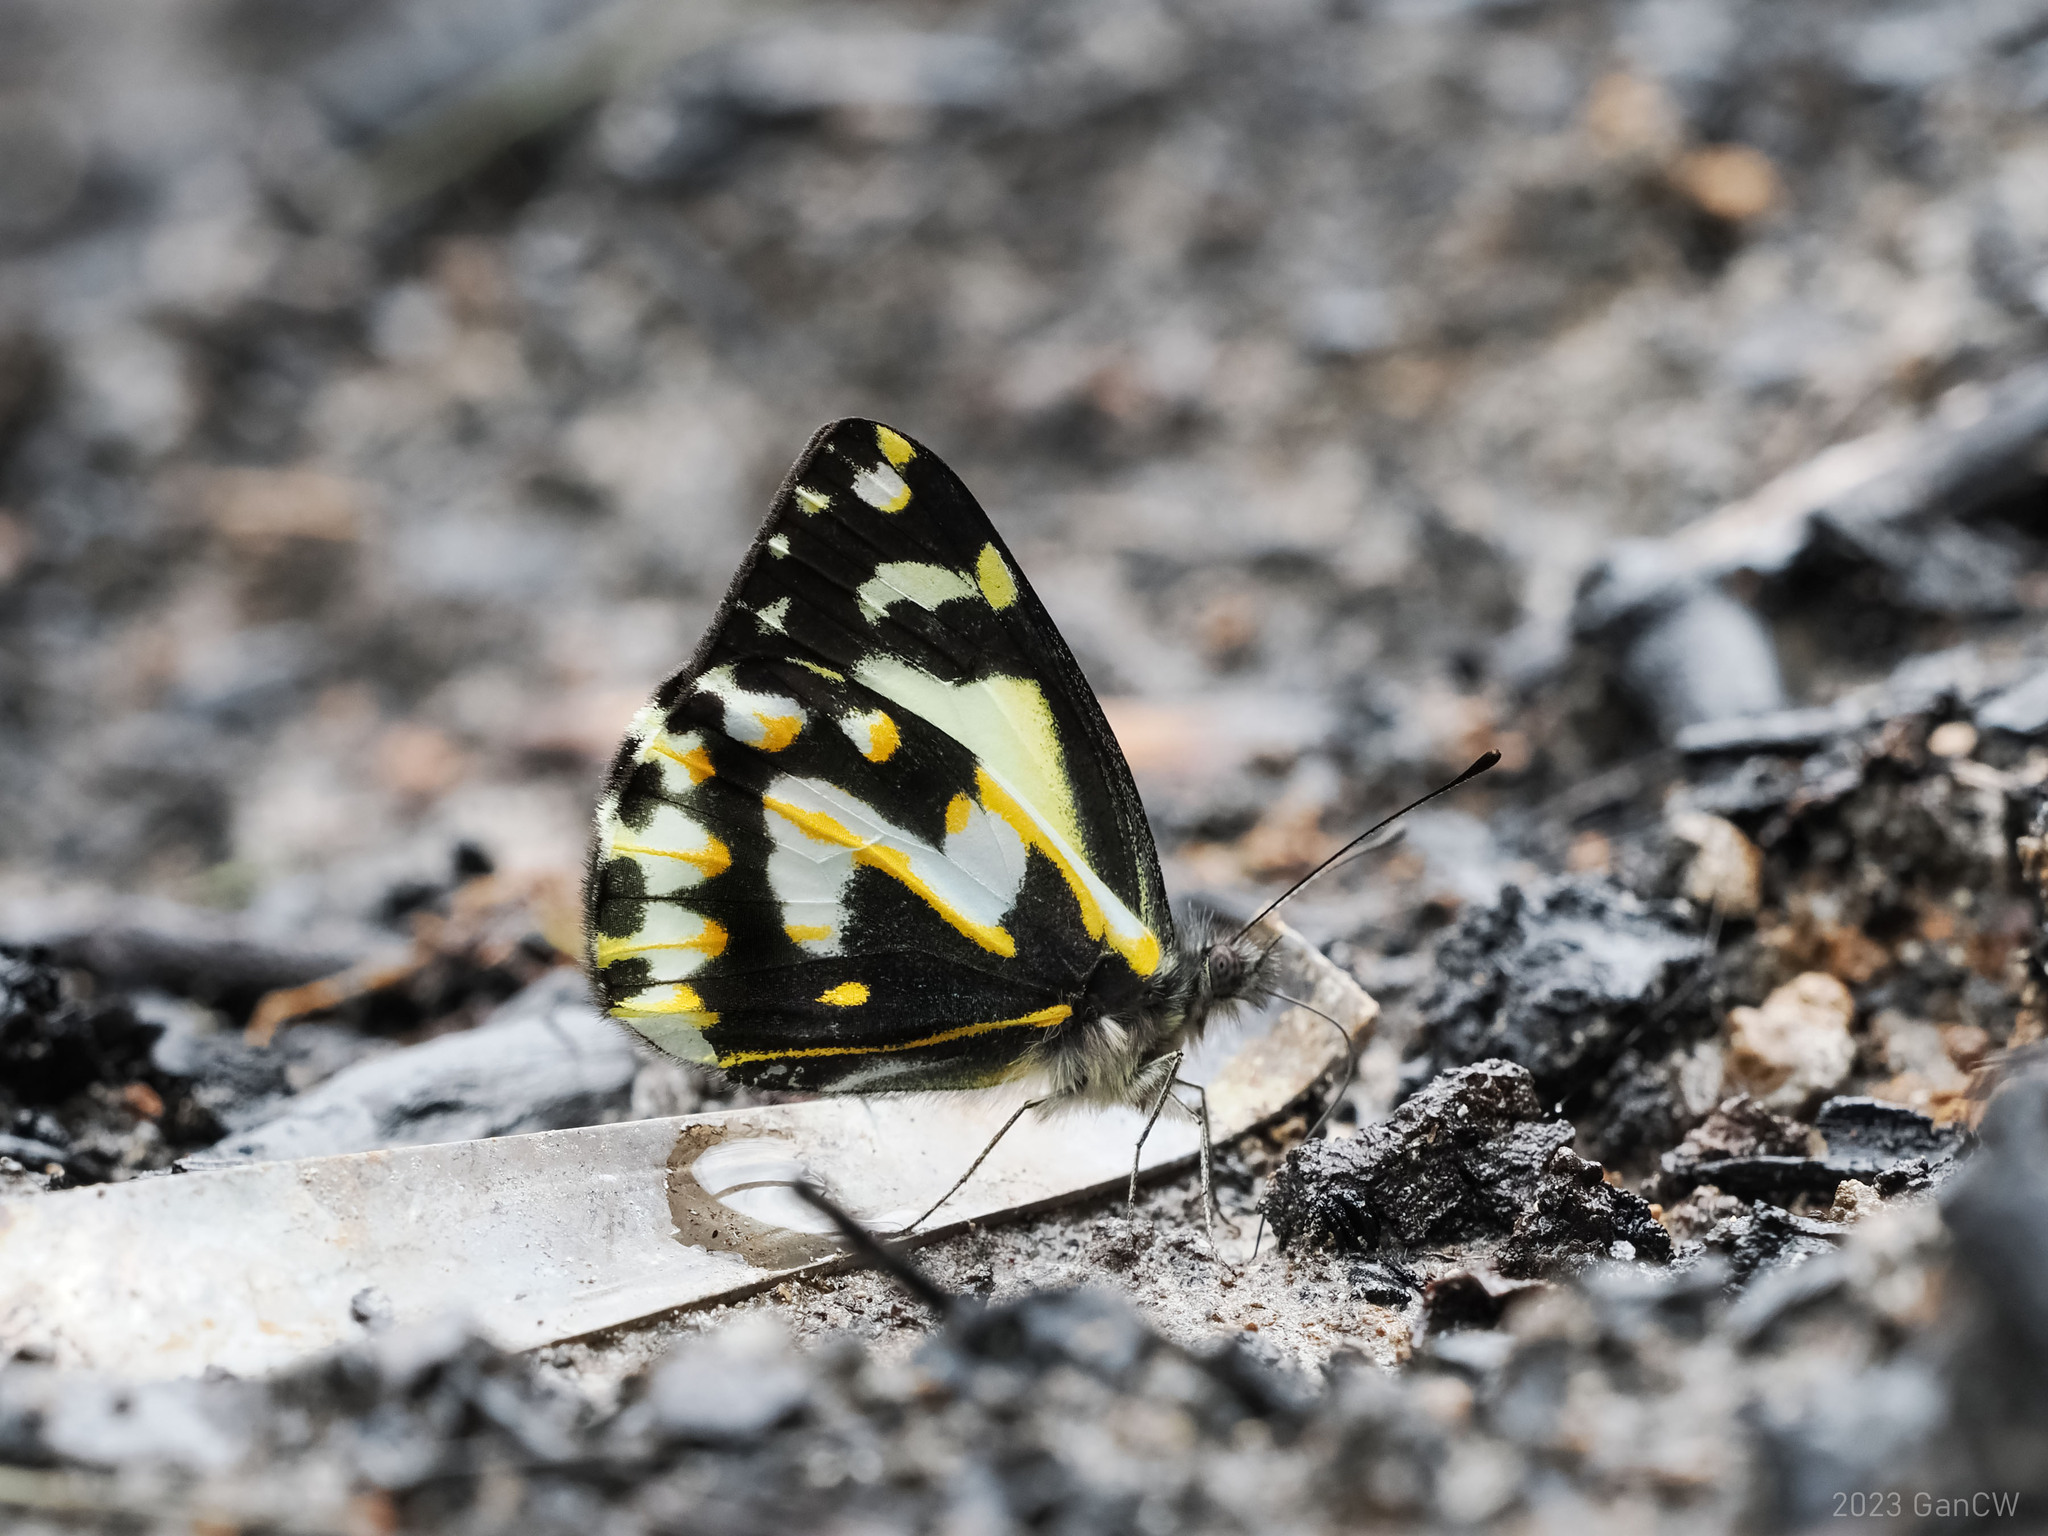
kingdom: Animalia
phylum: Arthropoda
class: Insecta
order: Lepidoptera
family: Pieridae
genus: Delias
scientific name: Delias catisa
